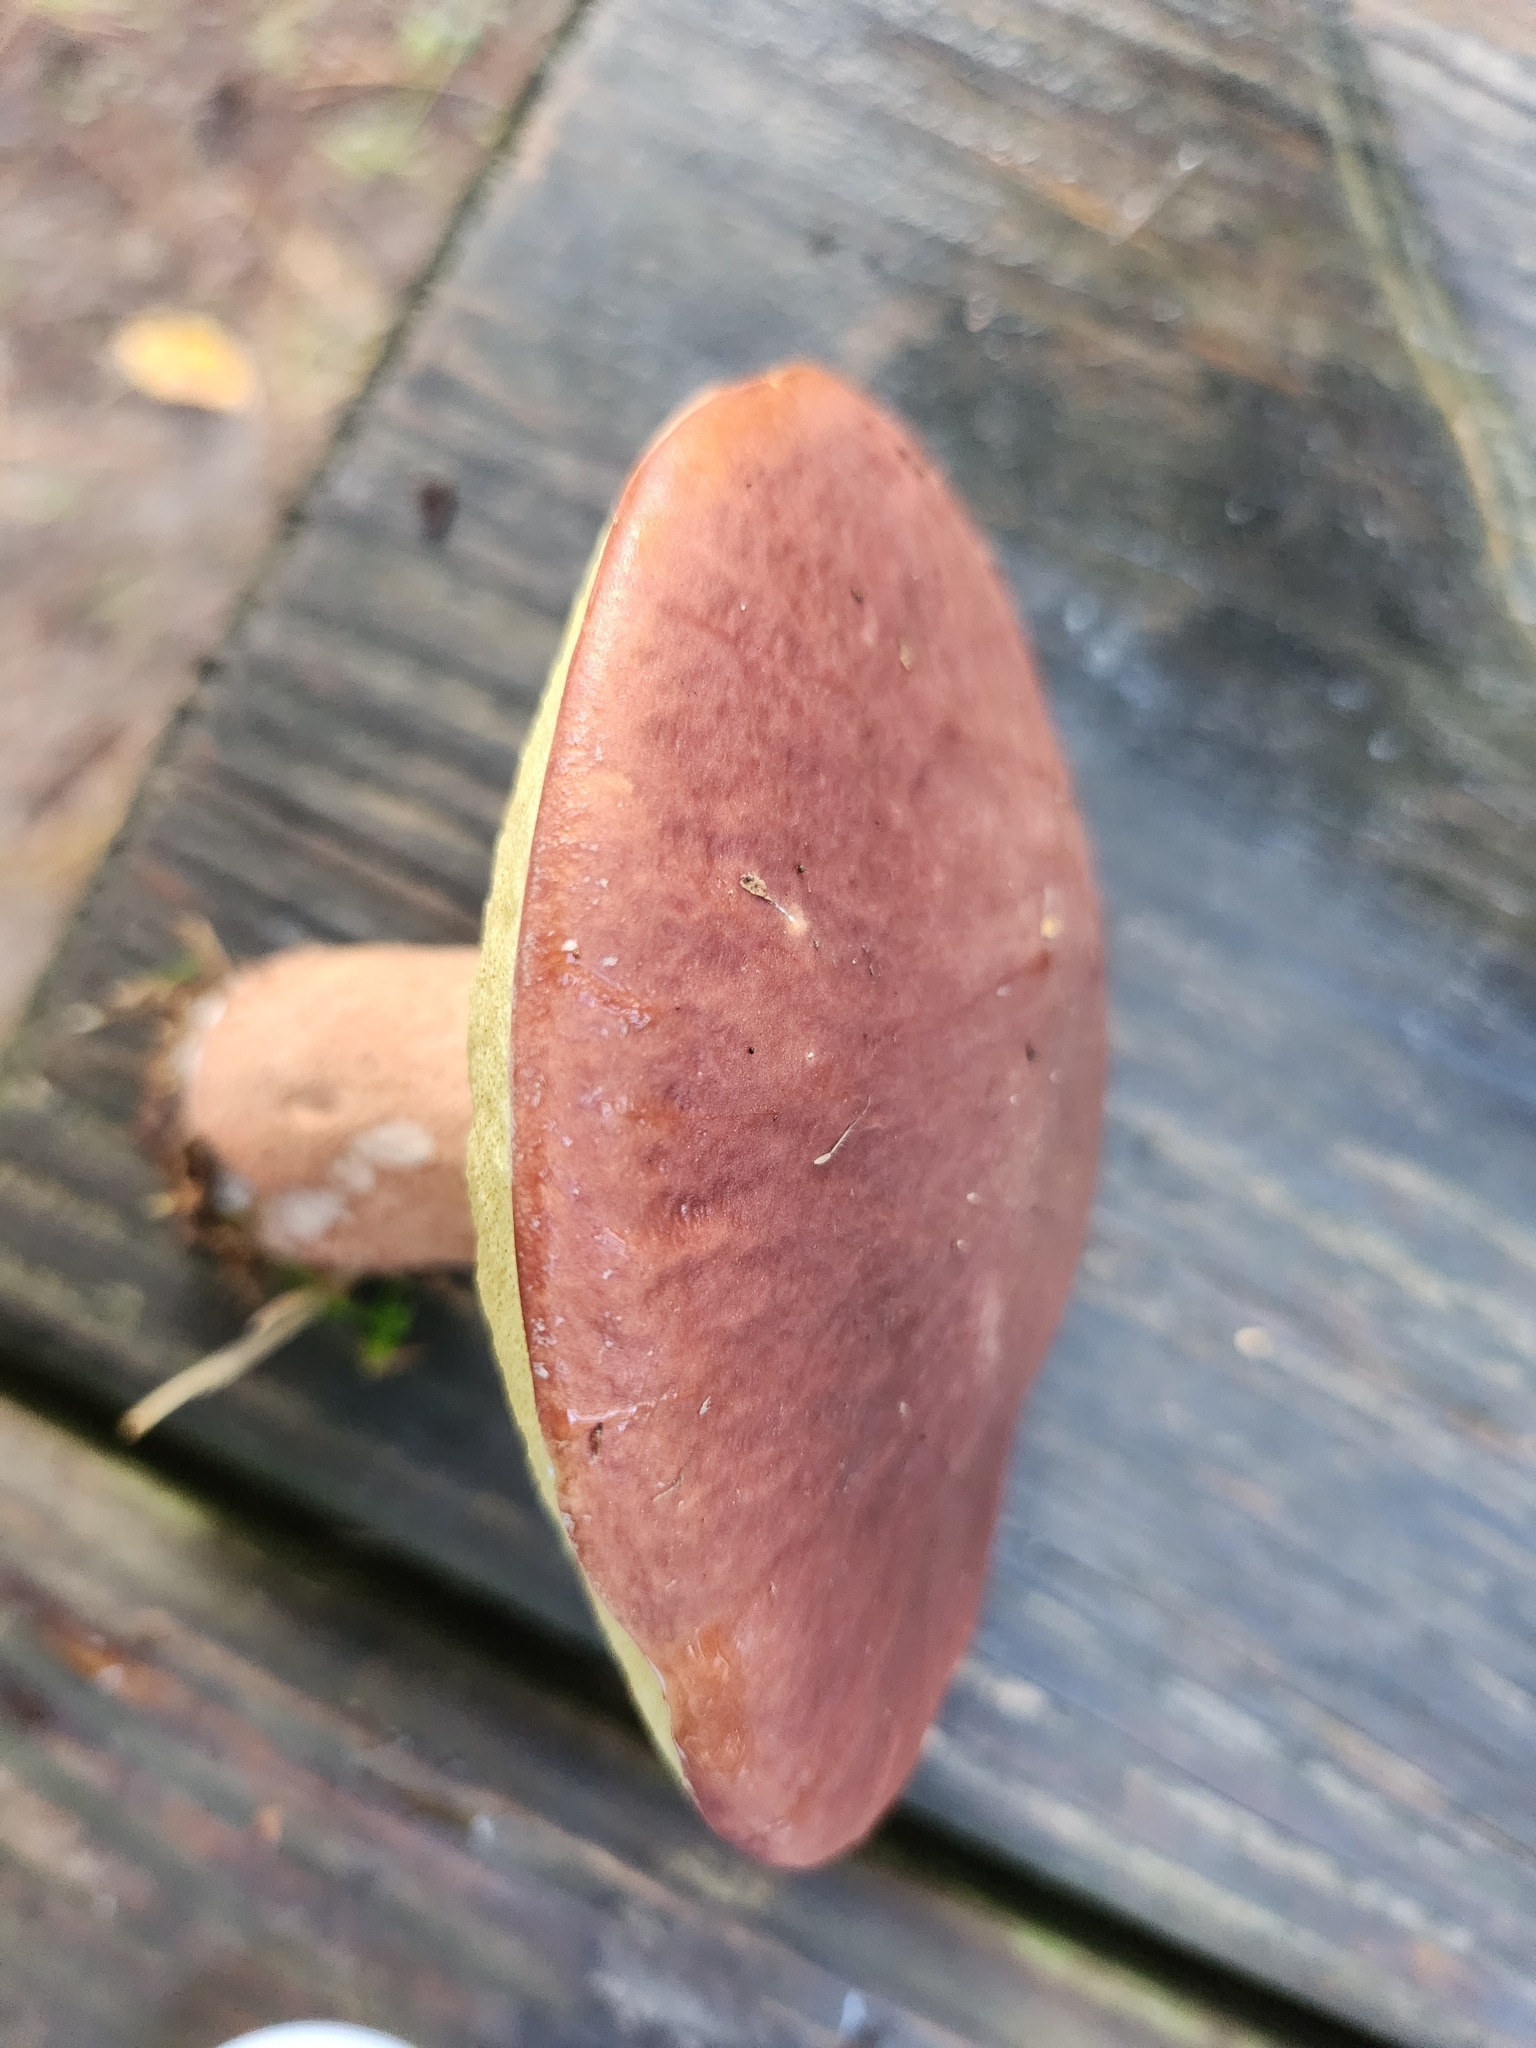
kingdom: Fungi
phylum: Basidiomycota
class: Agaricomycetes
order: Boletales
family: Boletaceae
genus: Boletus
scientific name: Boletus subcaerulescens
